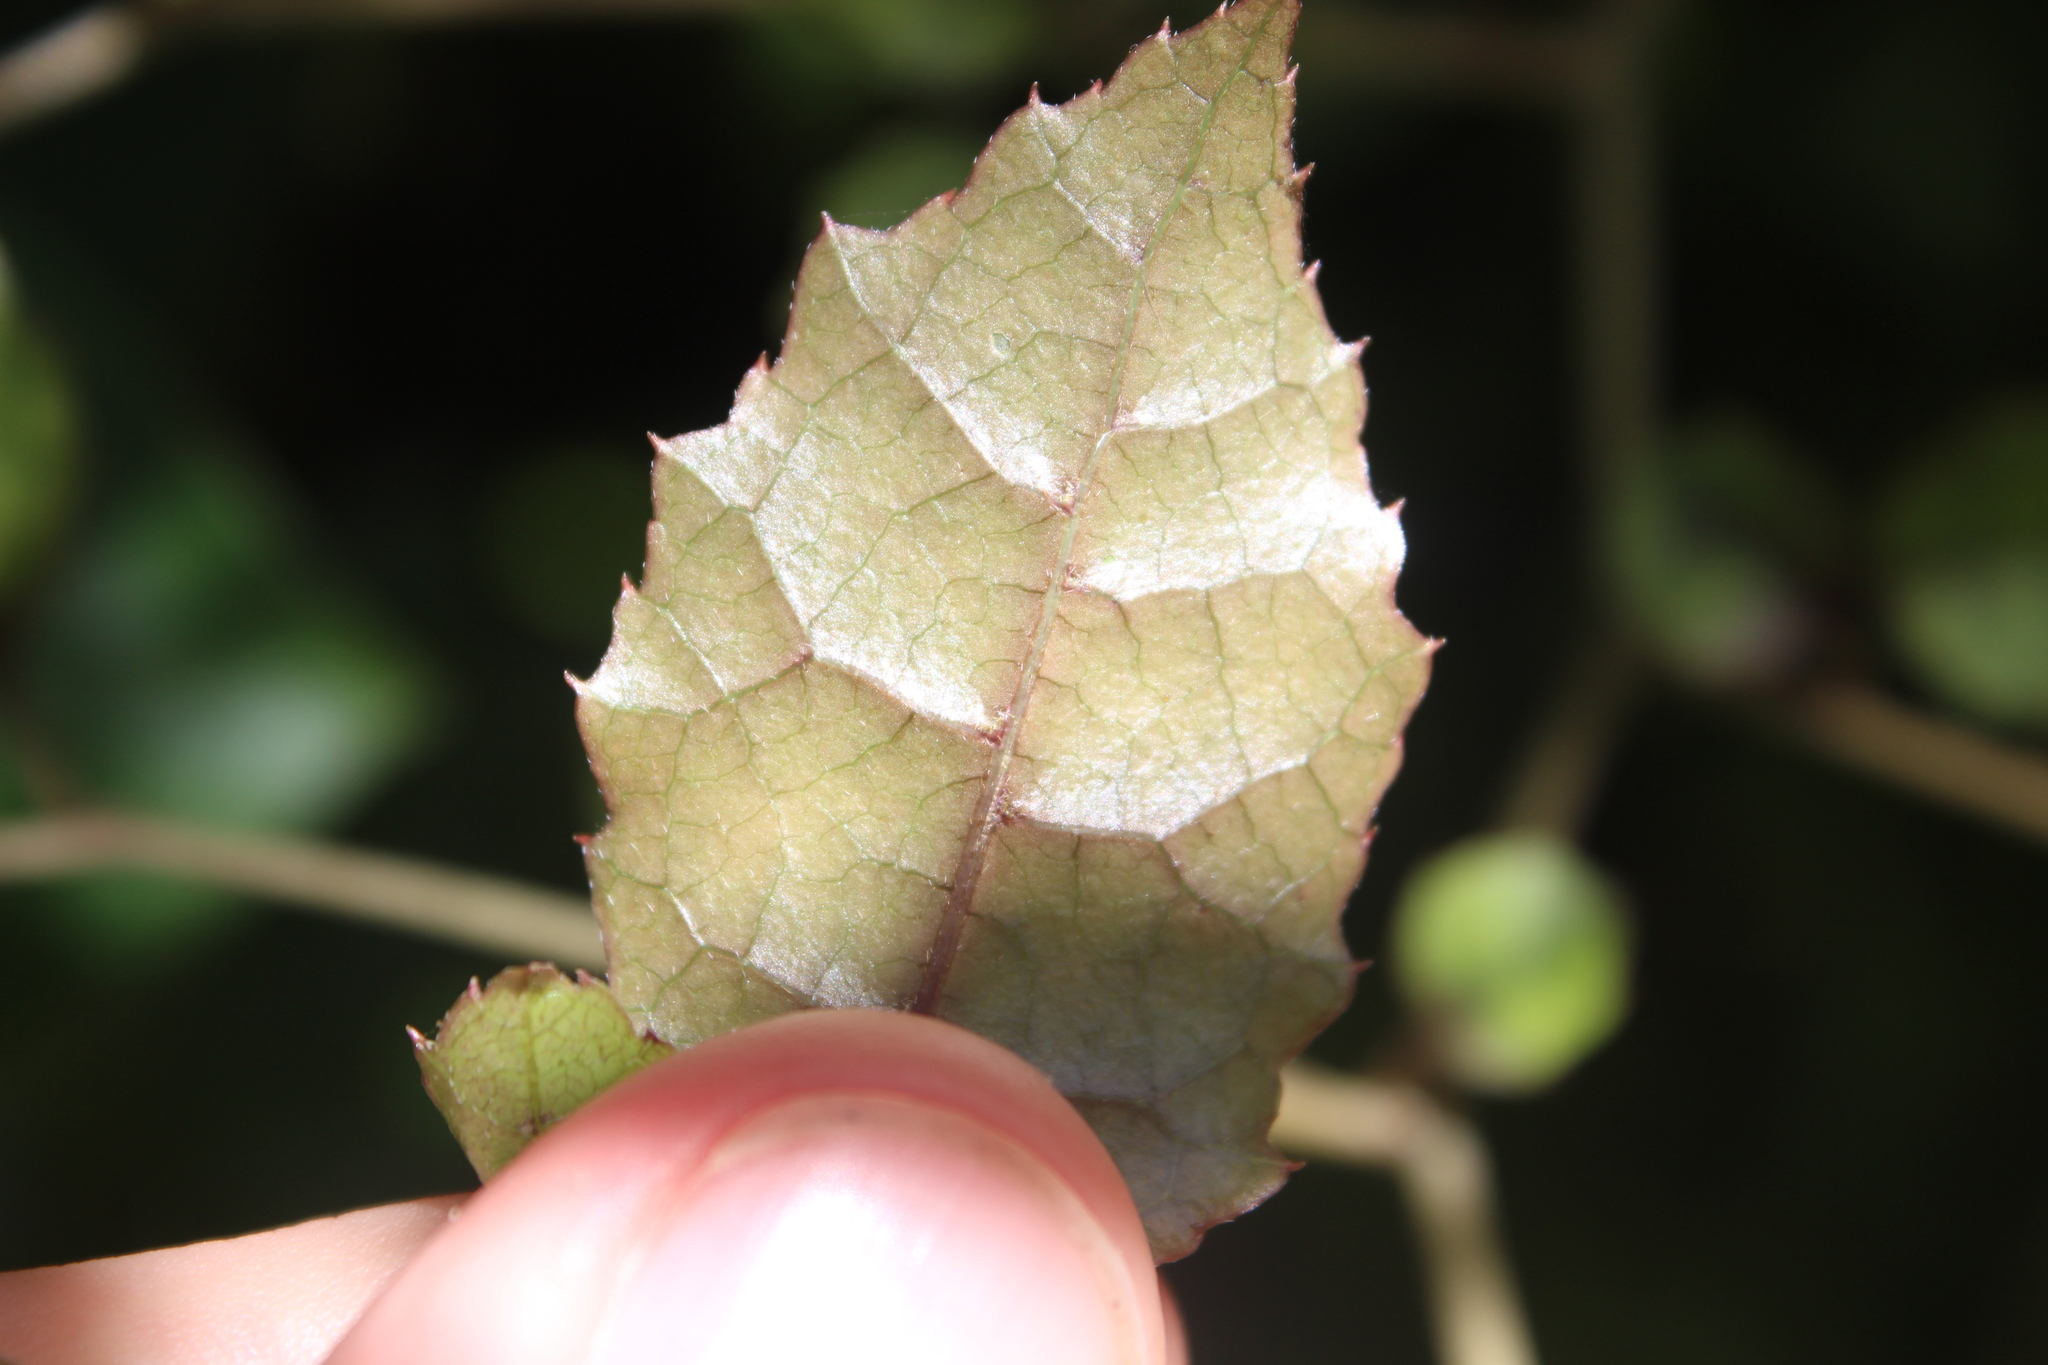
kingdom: Plantae
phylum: Tracheophyta
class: Magnoliopsida
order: Asterales
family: Rousseaceae
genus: Carpodetus
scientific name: Carpodetus serratus
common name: White mapau
